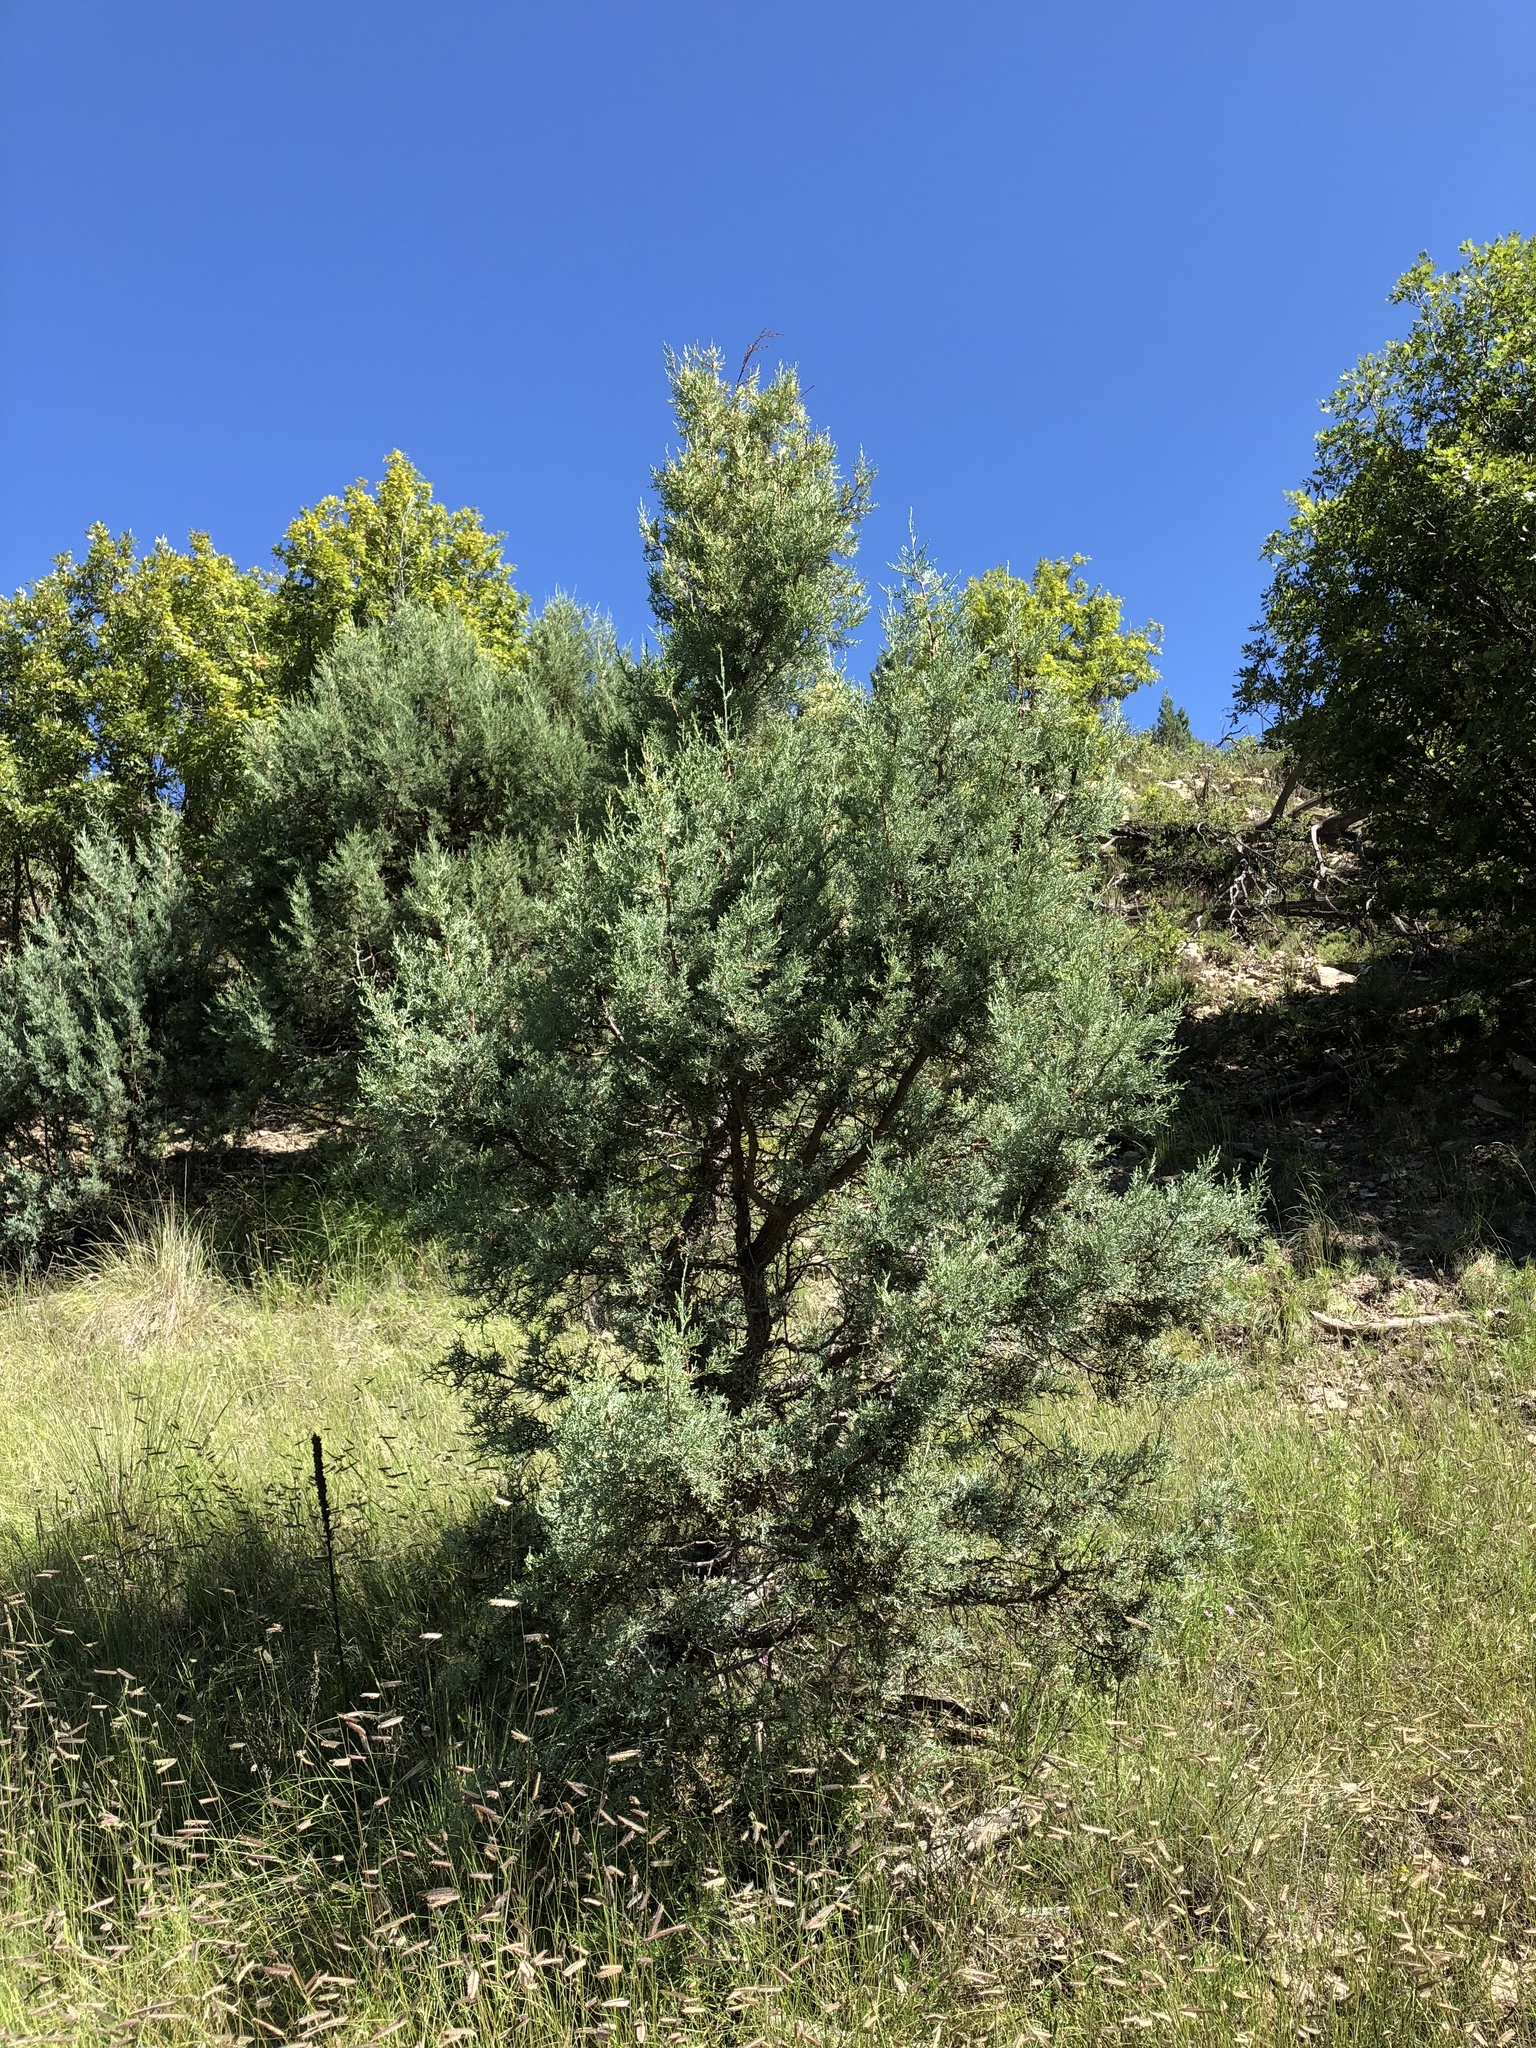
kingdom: Plantae
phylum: Tracheophyta
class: Pinopsida
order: Pinales
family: Cupressaceae
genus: Juniperus
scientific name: Juniperus deppeana
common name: Alligator juniper
